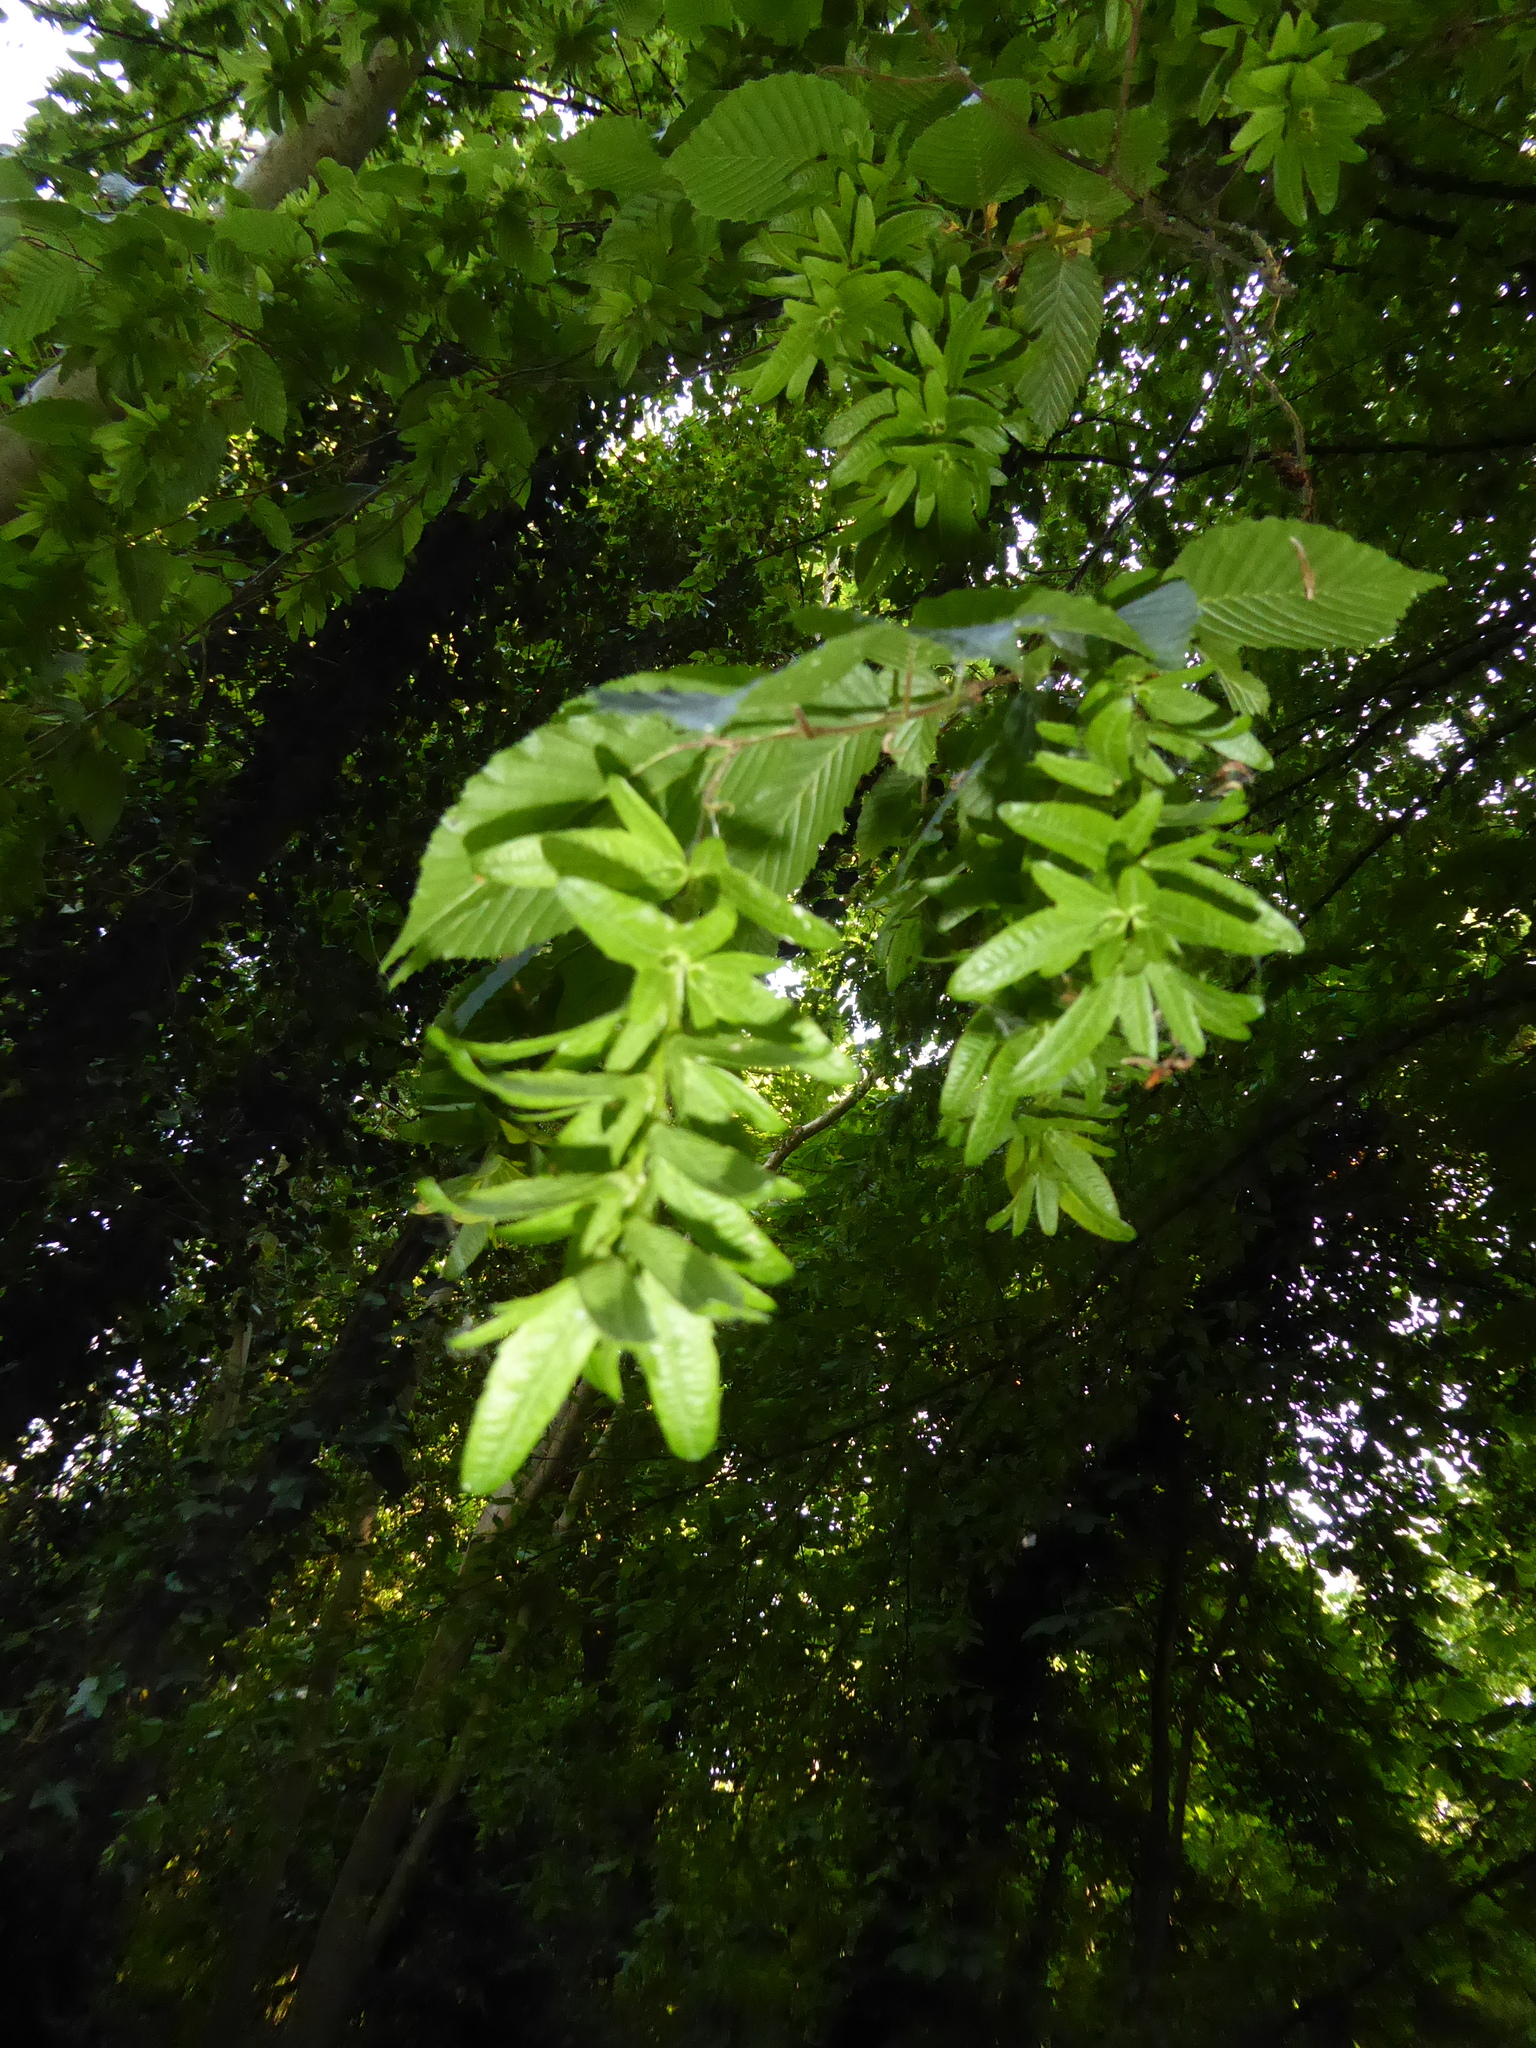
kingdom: Plantae
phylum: Tracheophyta
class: Magnoliopsida
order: Fagales
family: Betulaceae
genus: Carpinus
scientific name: Carpinus betulus
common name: Hornbeam
